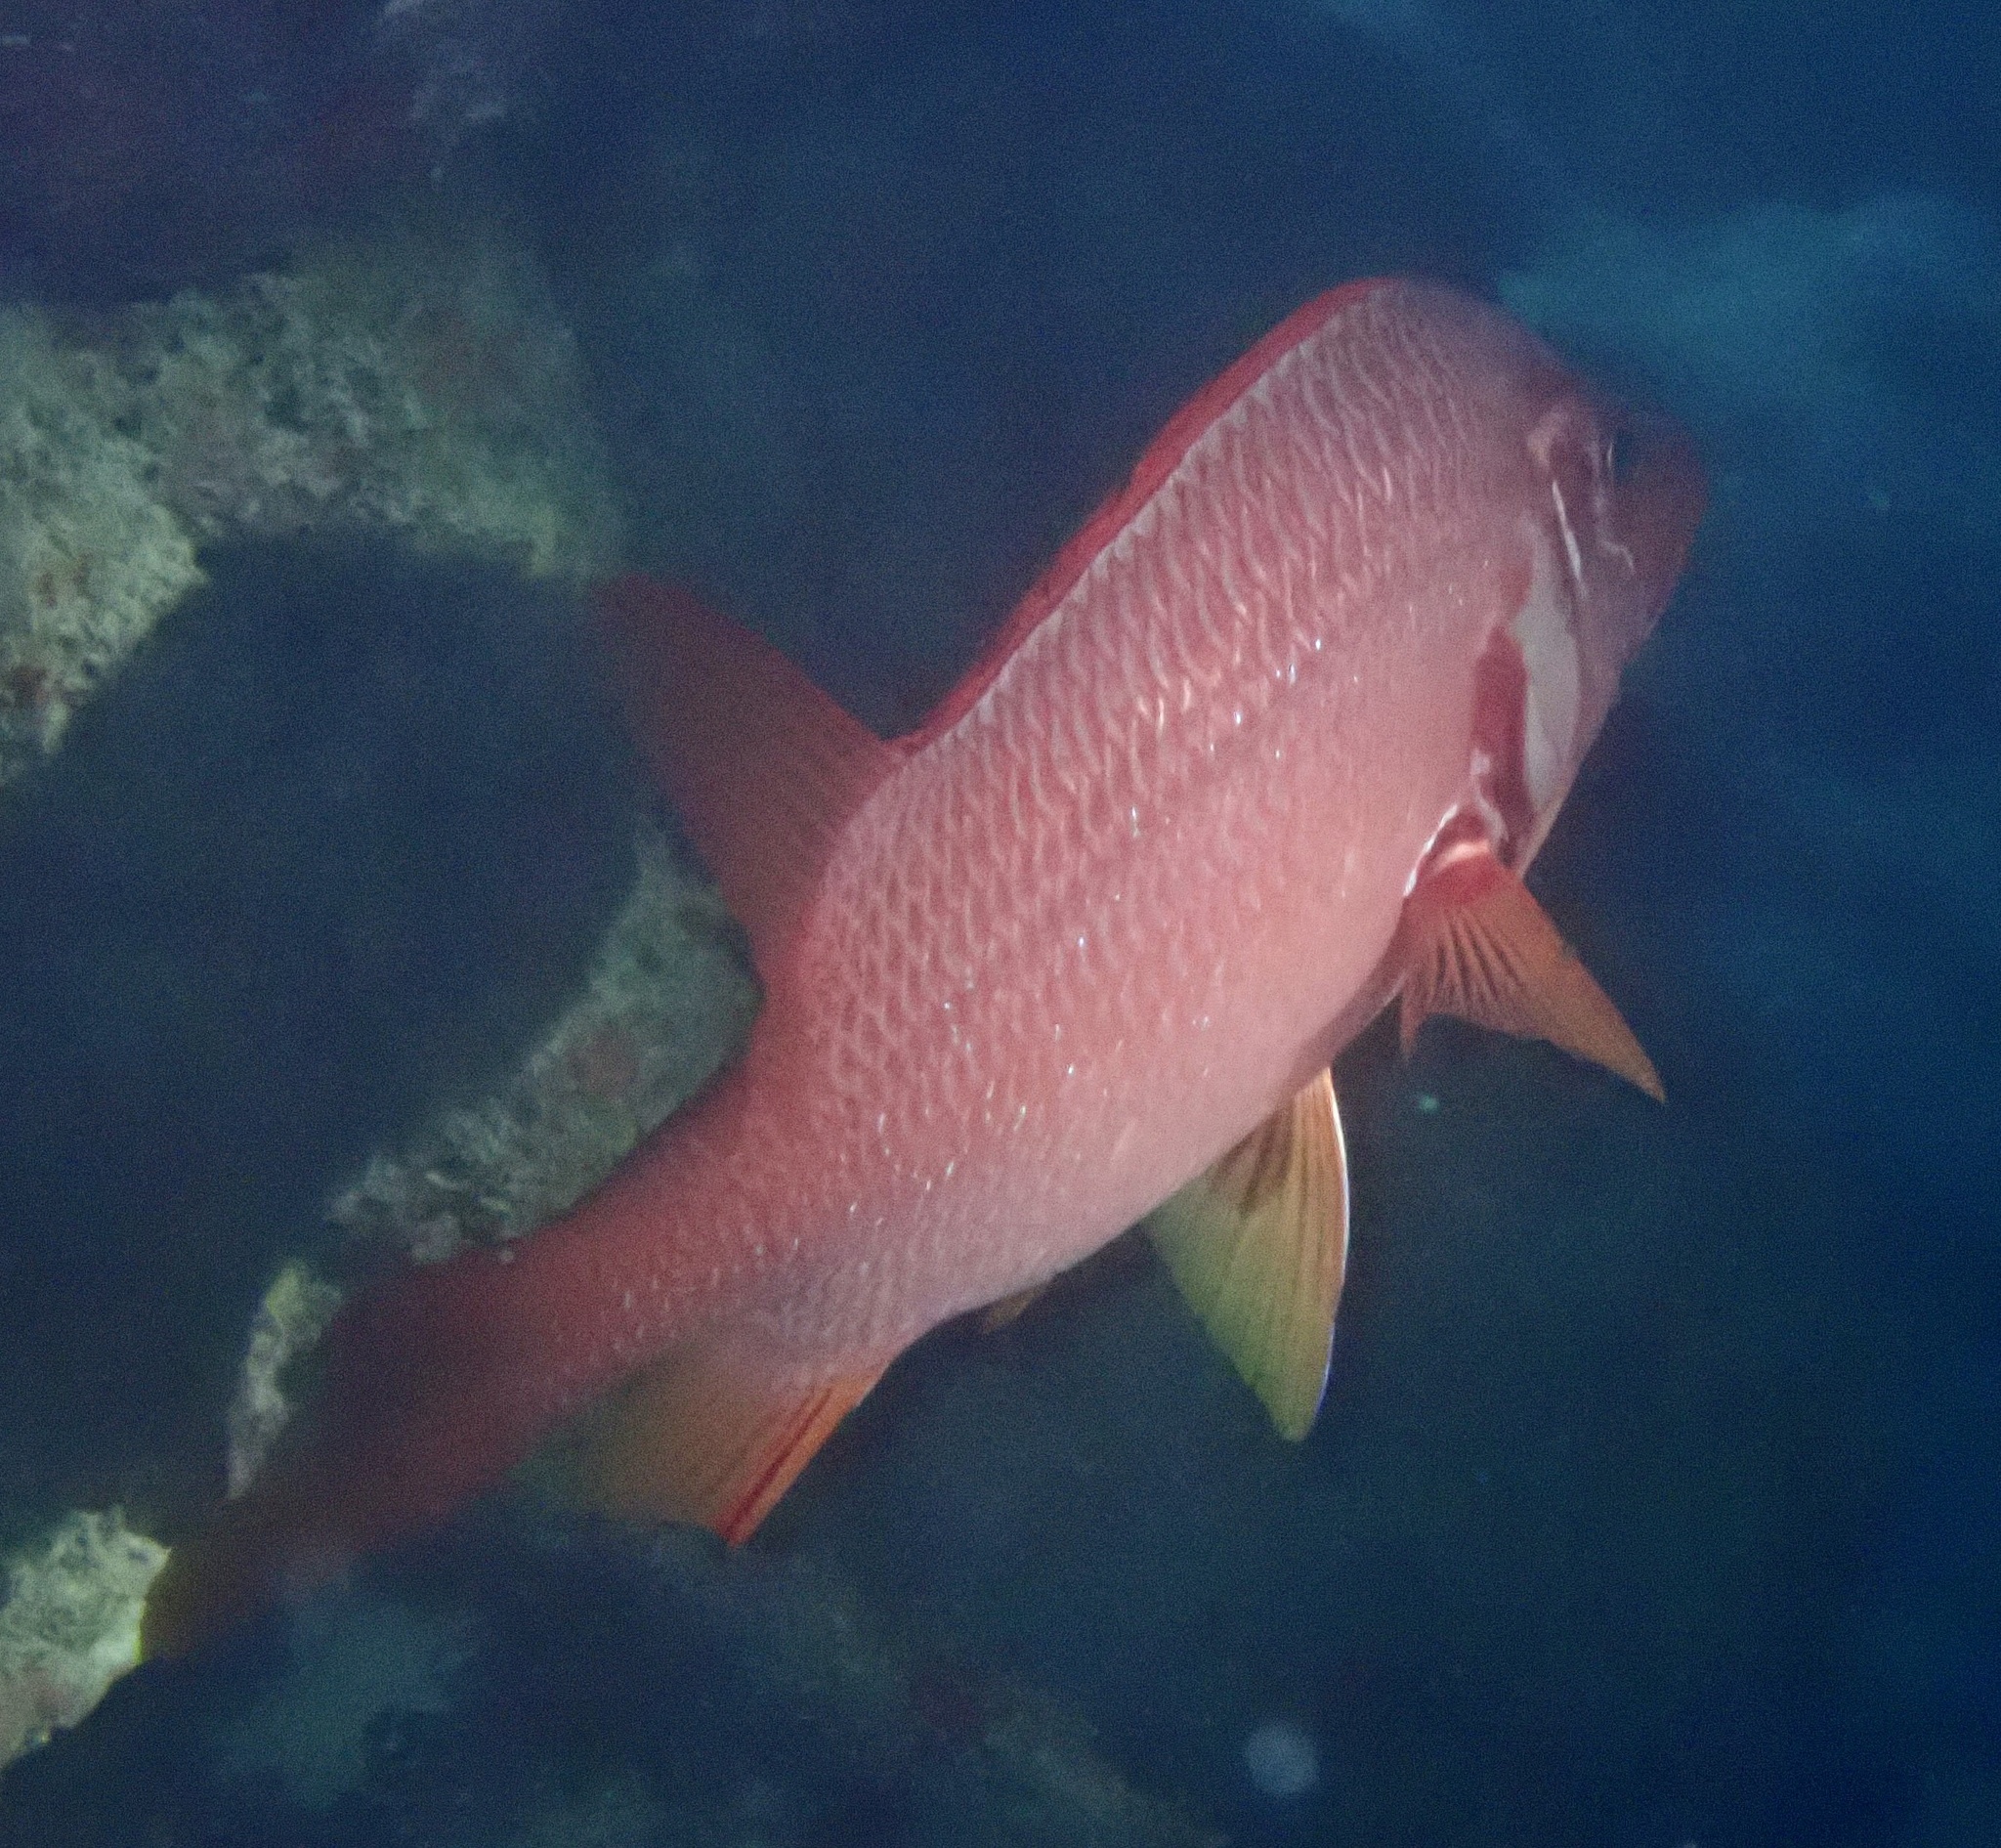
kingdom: Animalia
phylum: Chordata
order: Beryciformes
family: Holocentridae
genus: Sargocentron
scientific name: Sargocentron spiniferum
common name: Giant squirrelfish
